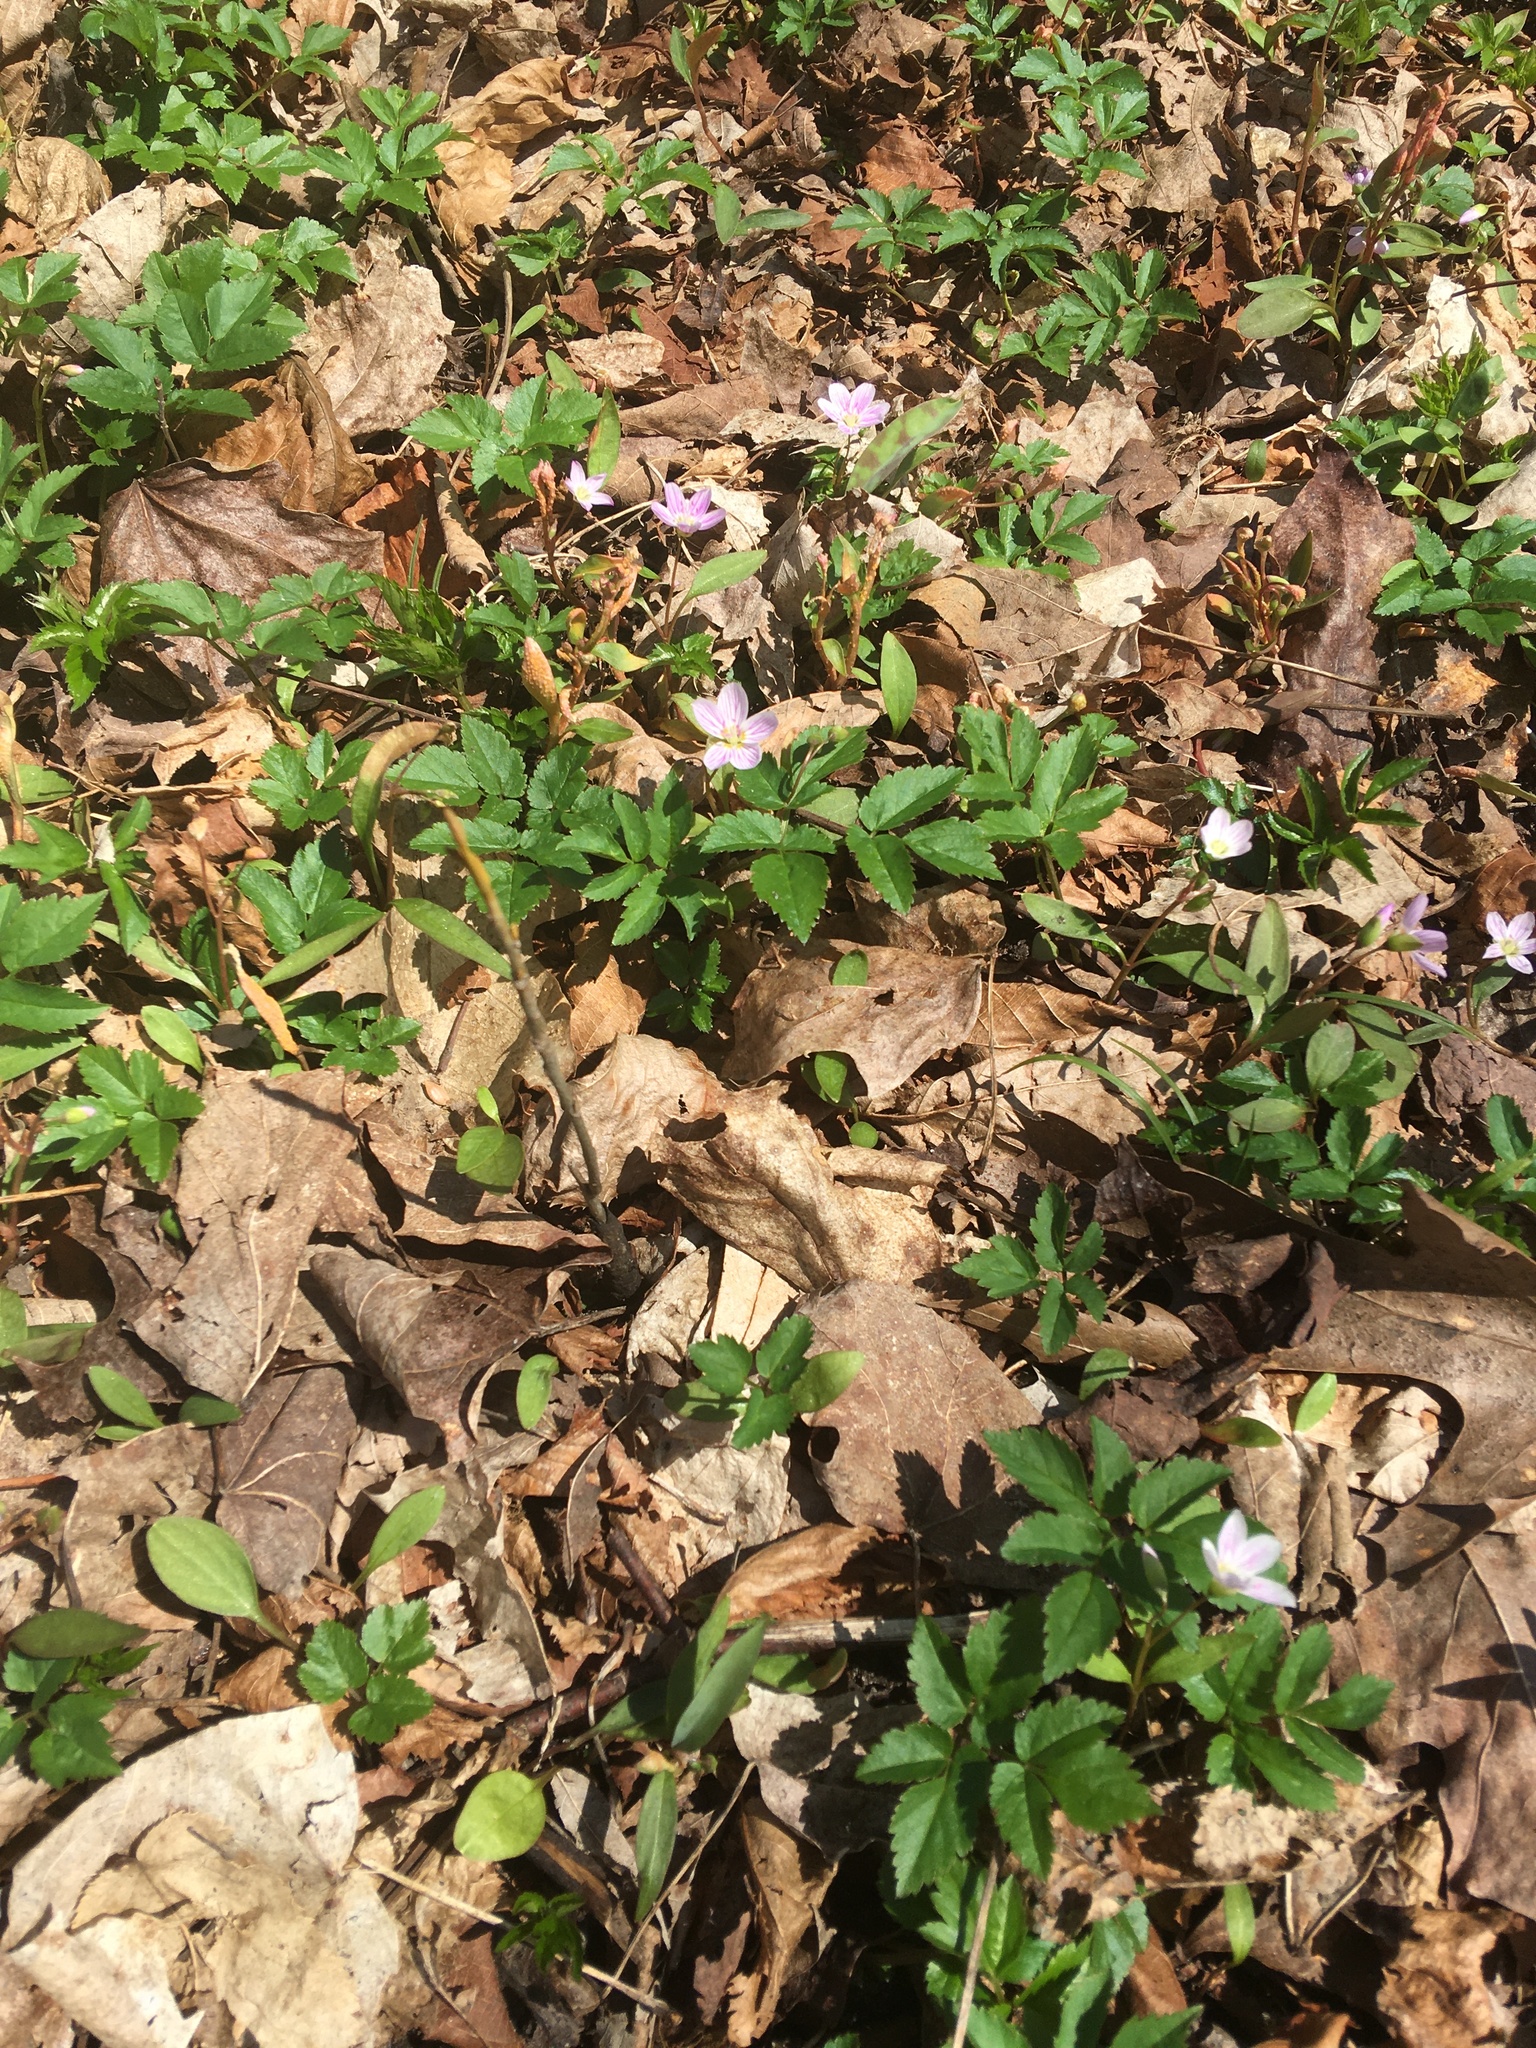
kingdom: Plantae
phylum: Tracheophyta
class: Magnoliopsida
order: Caryophyllales
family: Montiaceae
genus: Claytonia
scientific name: Claytonia caroliniana
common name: Carolina spring beauty
